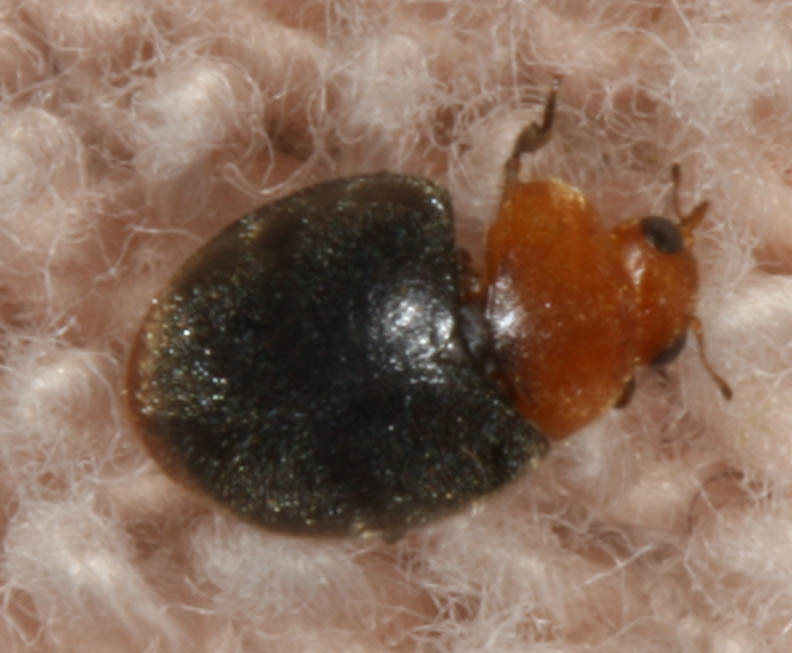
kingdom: Animalia
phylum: Arthropoda
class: Insecta
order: Coleoptera
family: Coccinellidae
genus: Cryptolaemus
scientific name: Cryptolaemus montrouzieri
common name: Mealybug destroyer
